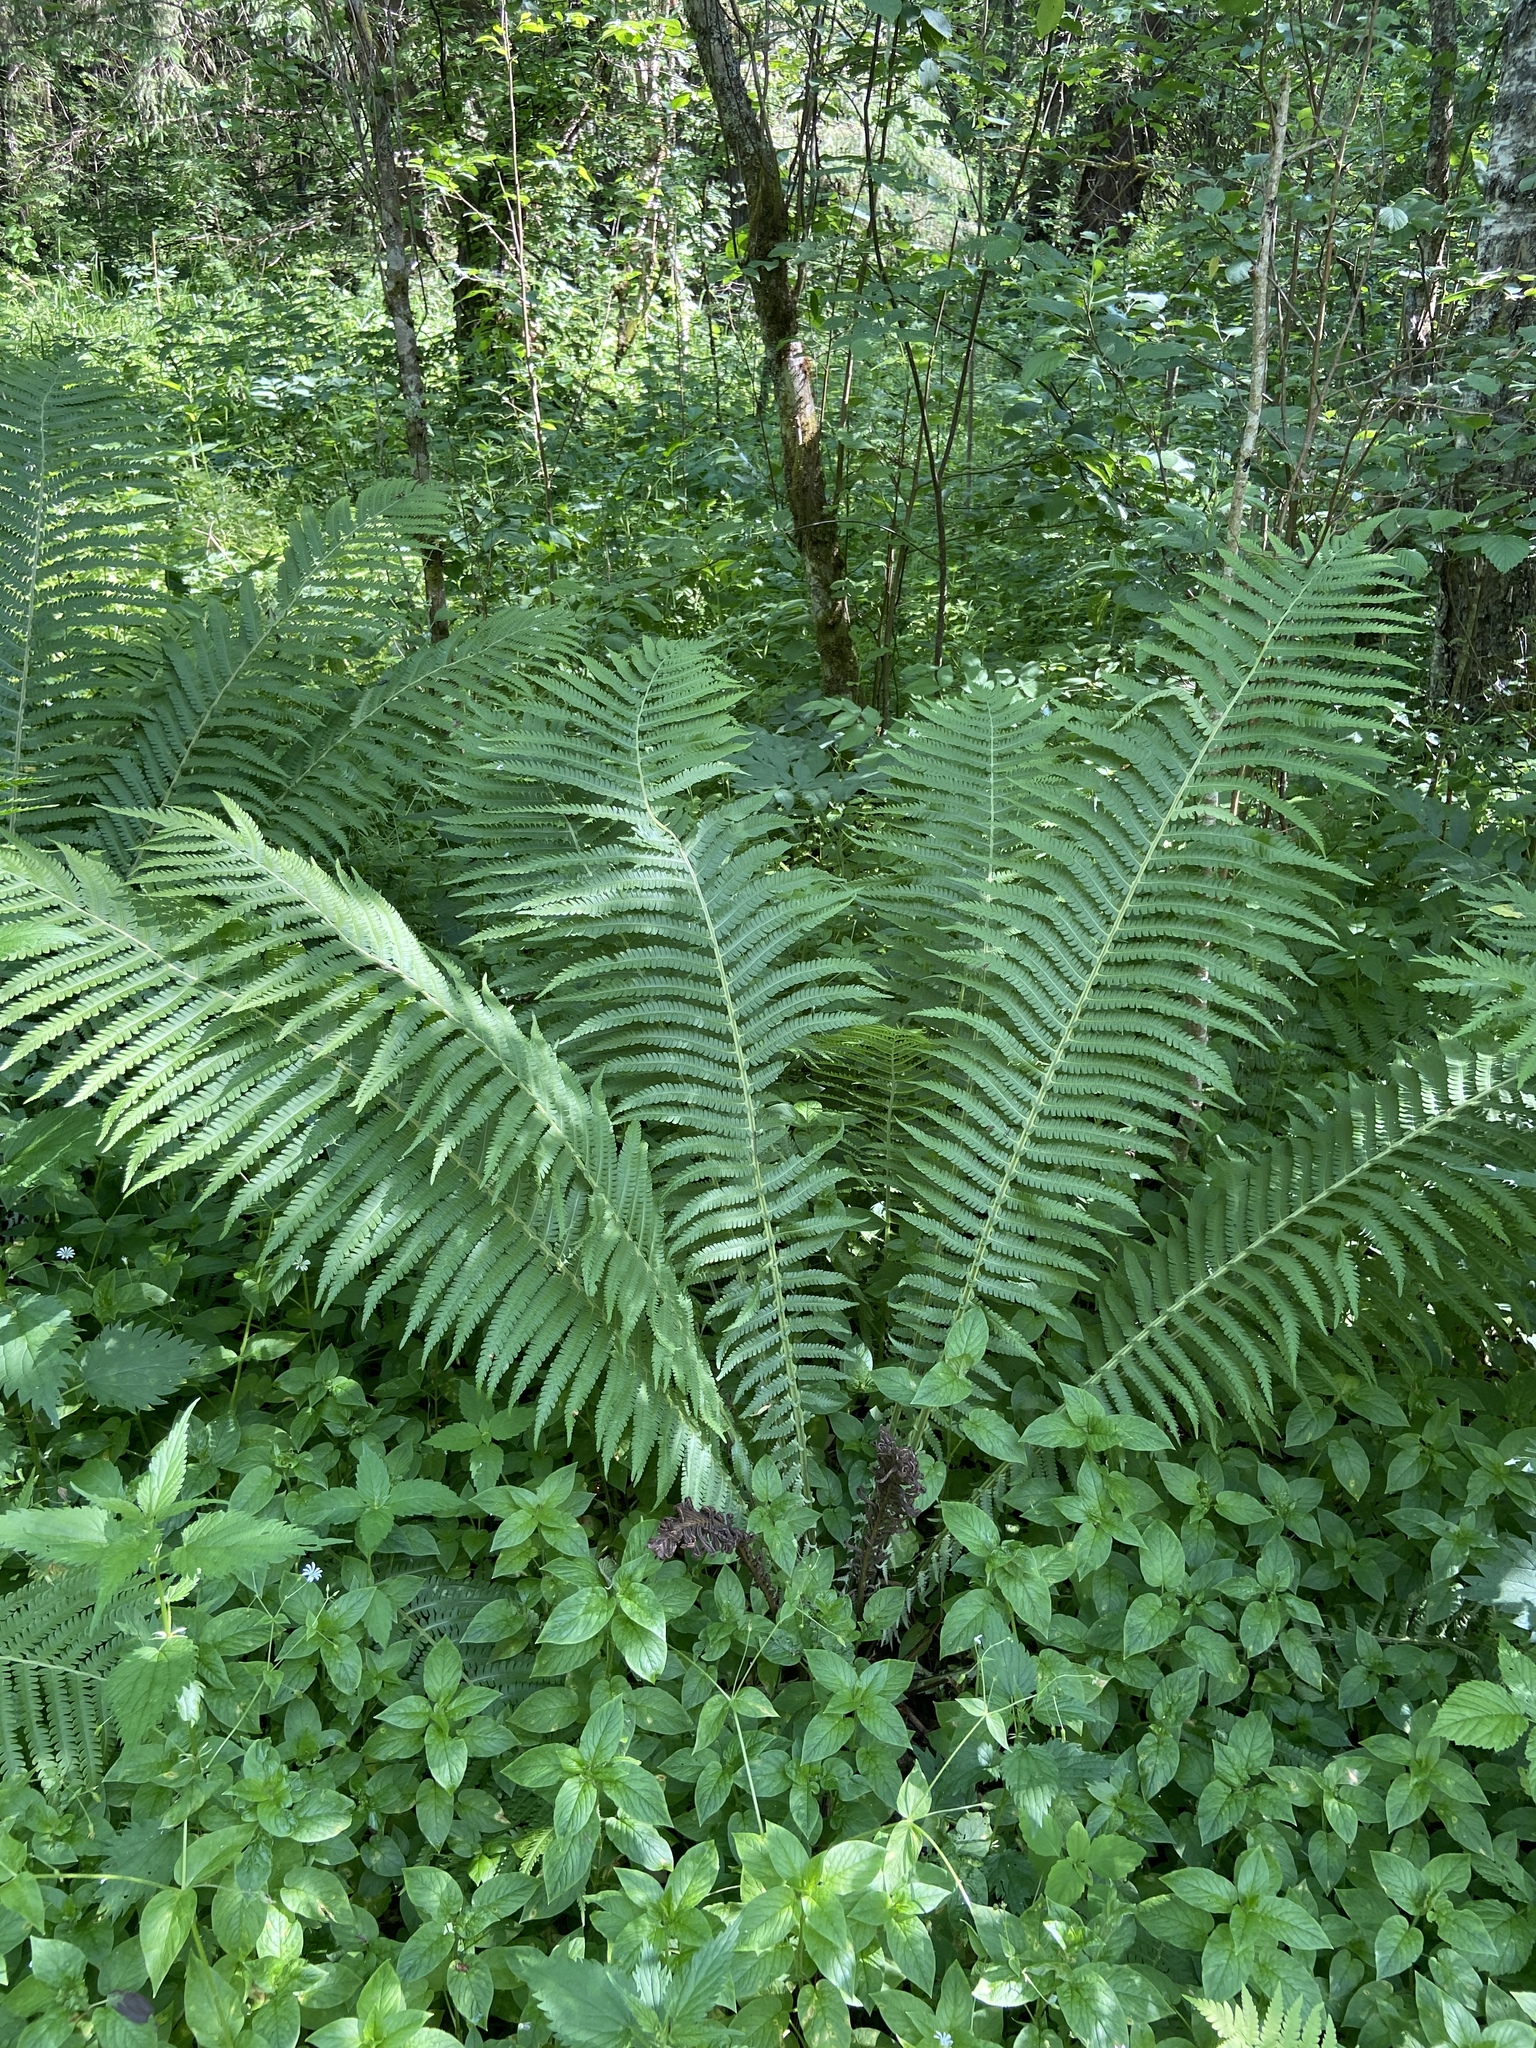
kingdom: Plantae
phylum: Tracheophyta
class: Polypodiopsida
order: Polypodiales
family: Onocleaceae
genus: Matteuccia
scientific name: Matteuccia struthiopteris
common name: Ostrich fern
